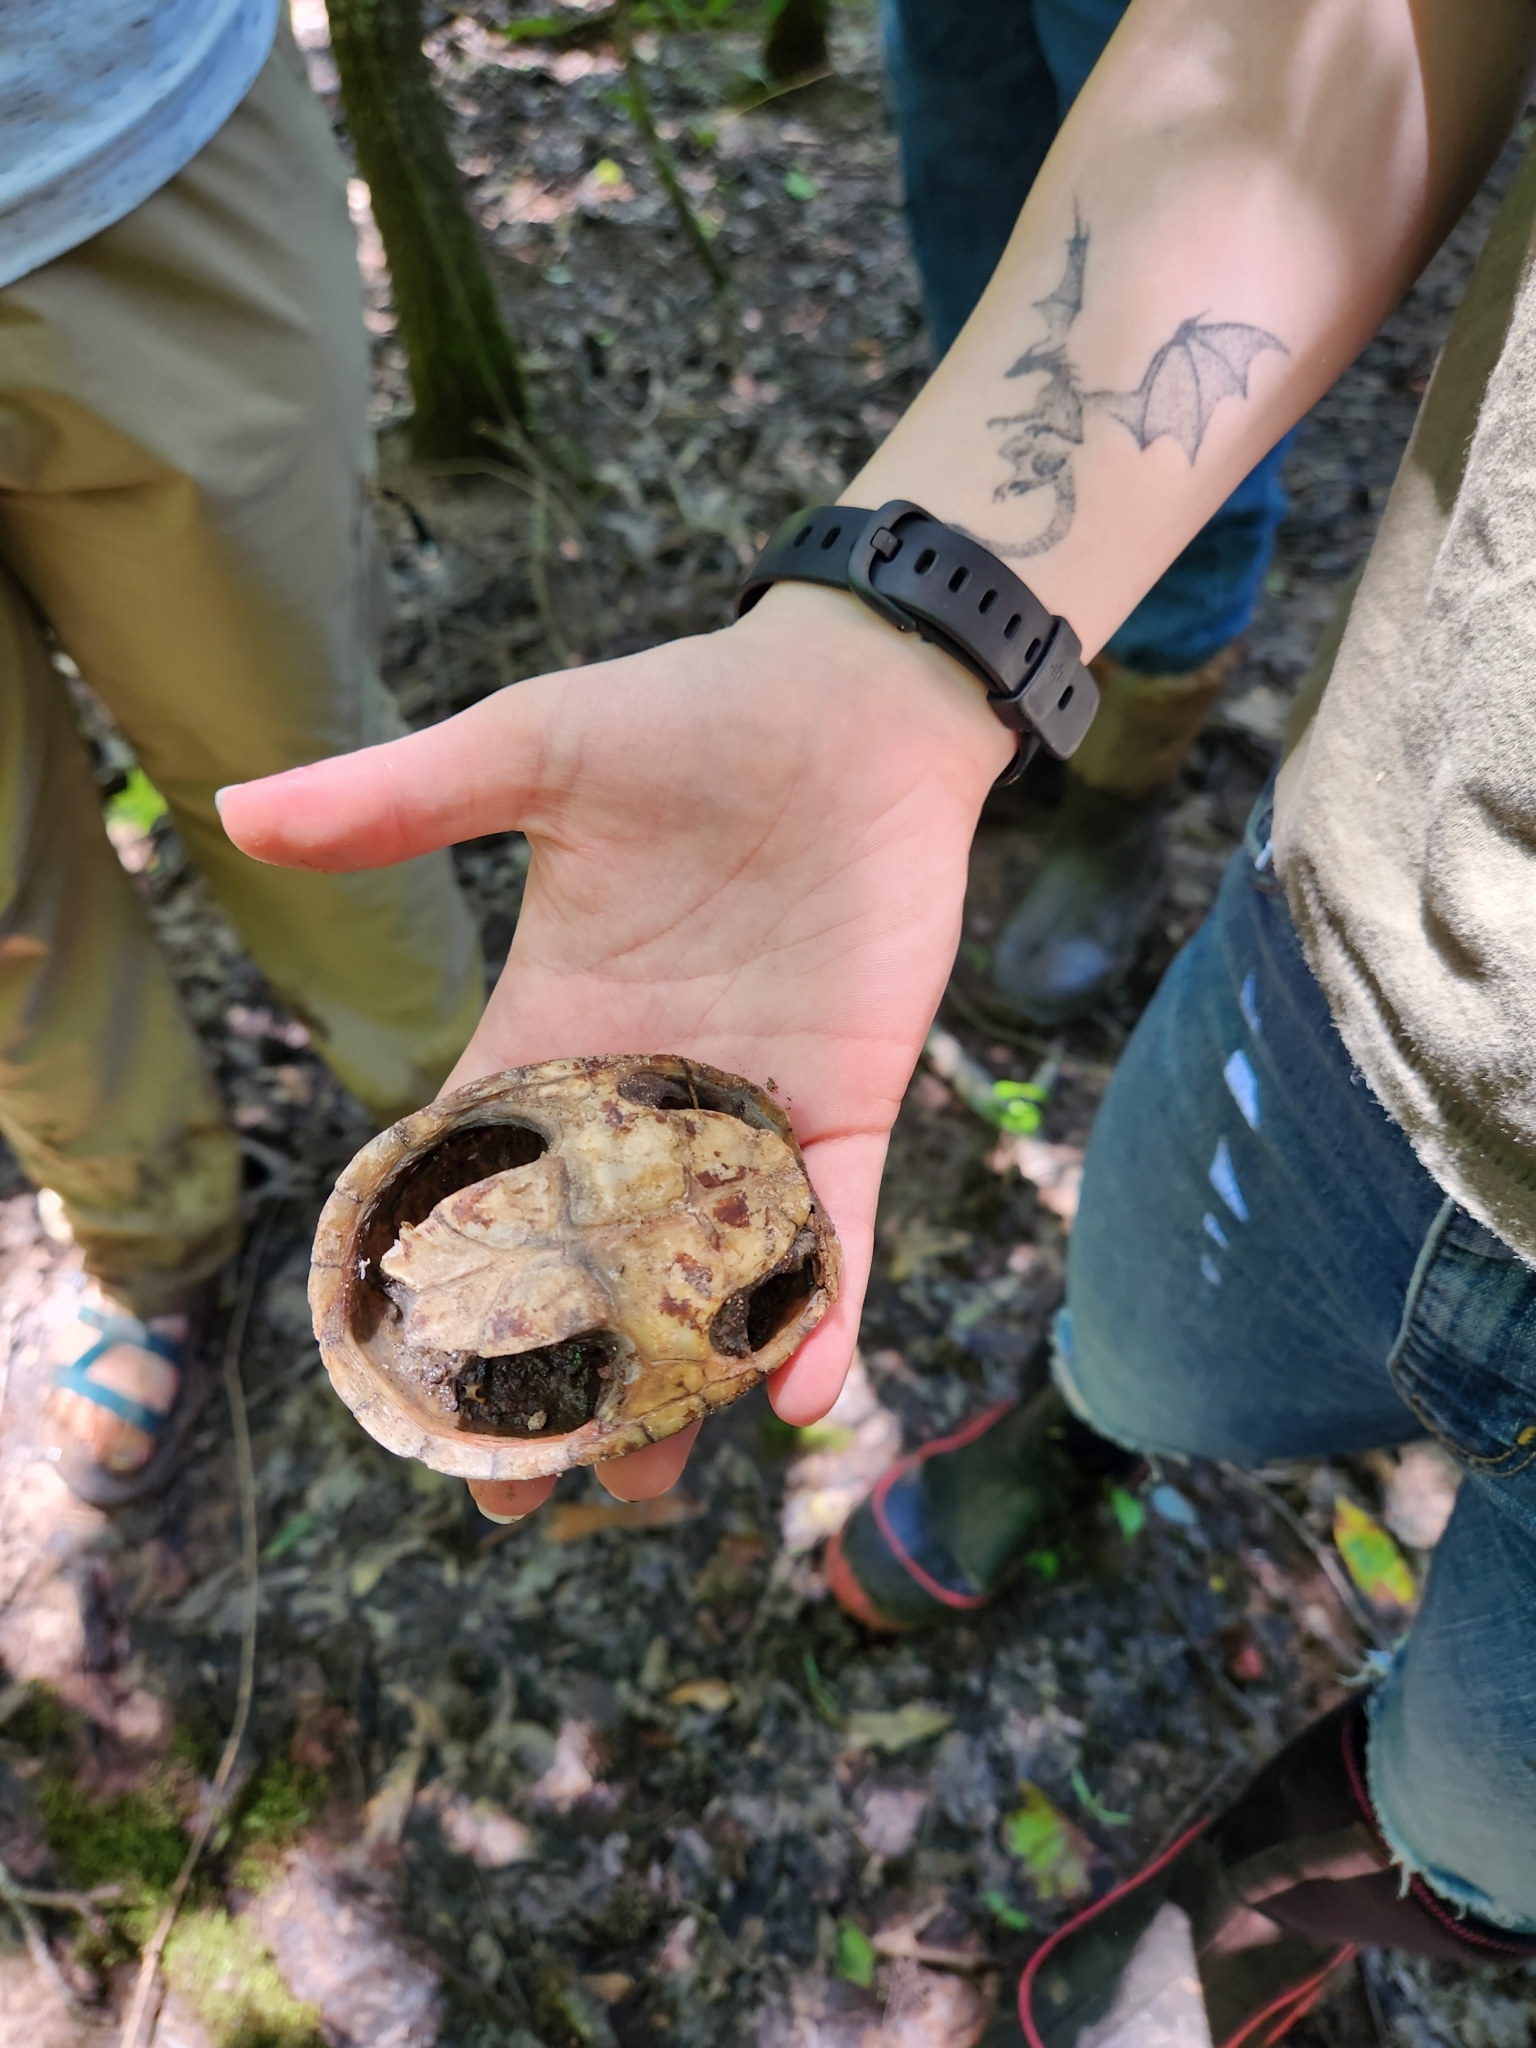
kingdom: Animalia
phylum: Chordata
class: Testudines
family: Kinosternidae
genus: Sternotherus
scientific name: Sternotherus odoratus
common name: Common musk turtle
